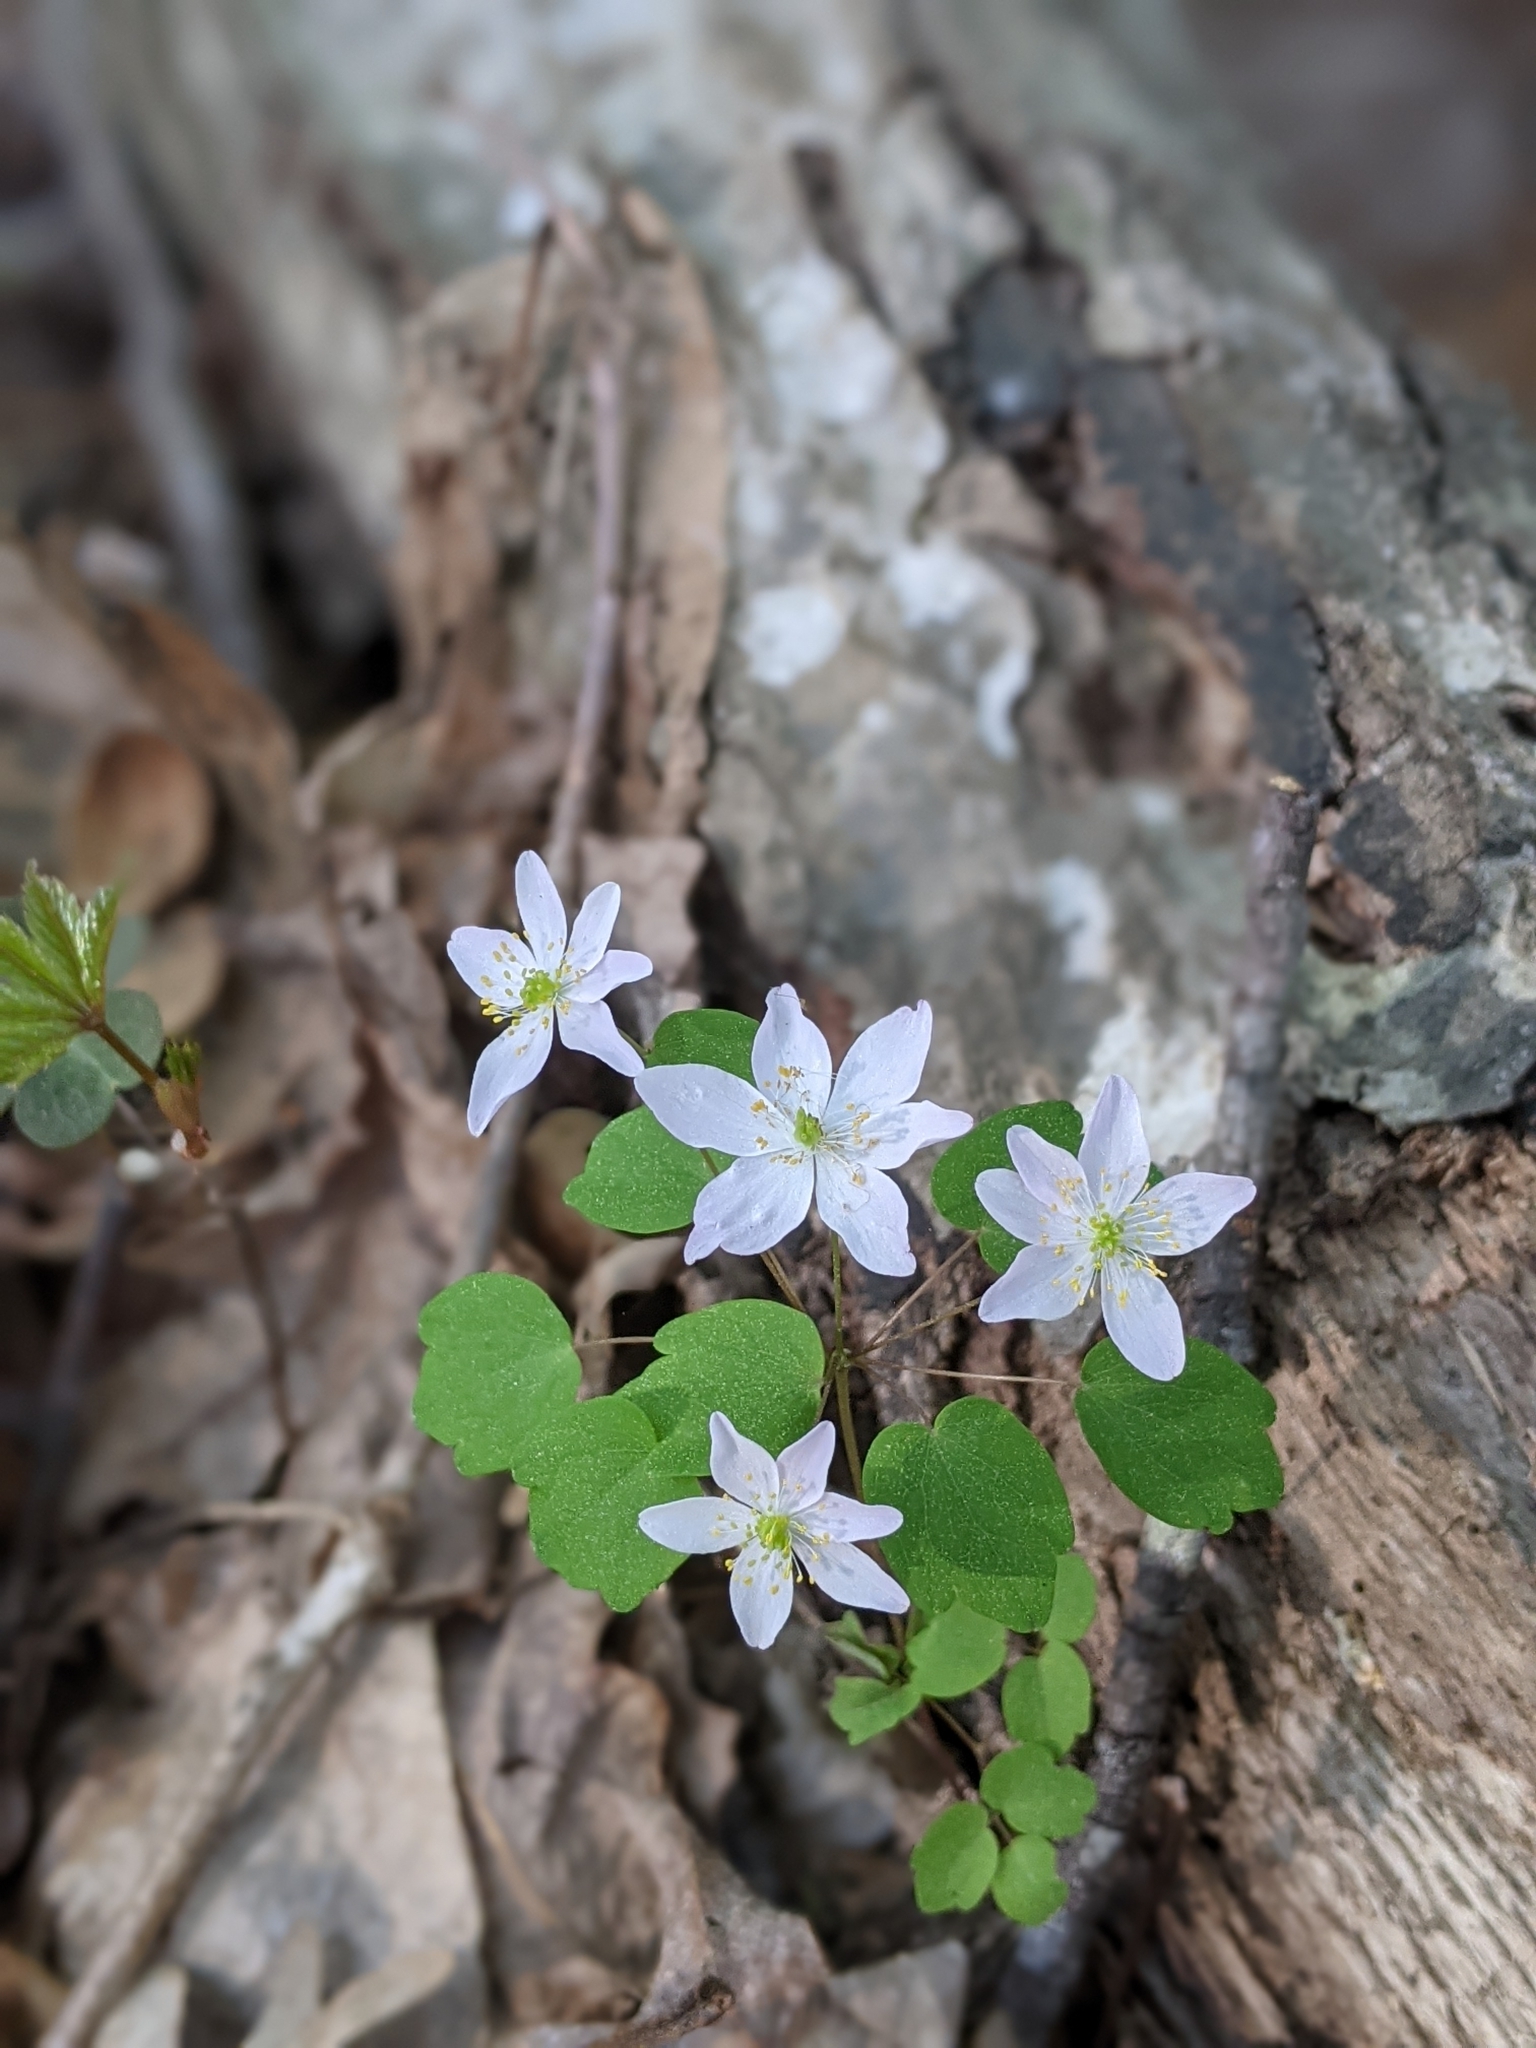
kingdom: Plantae
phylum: Tracheophyta
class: Magnoliopsida
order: Ranunculales
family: Ranunculaceae
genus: Thalictrum
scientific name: Thalictrum thalictroides
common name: Rue-anemone
